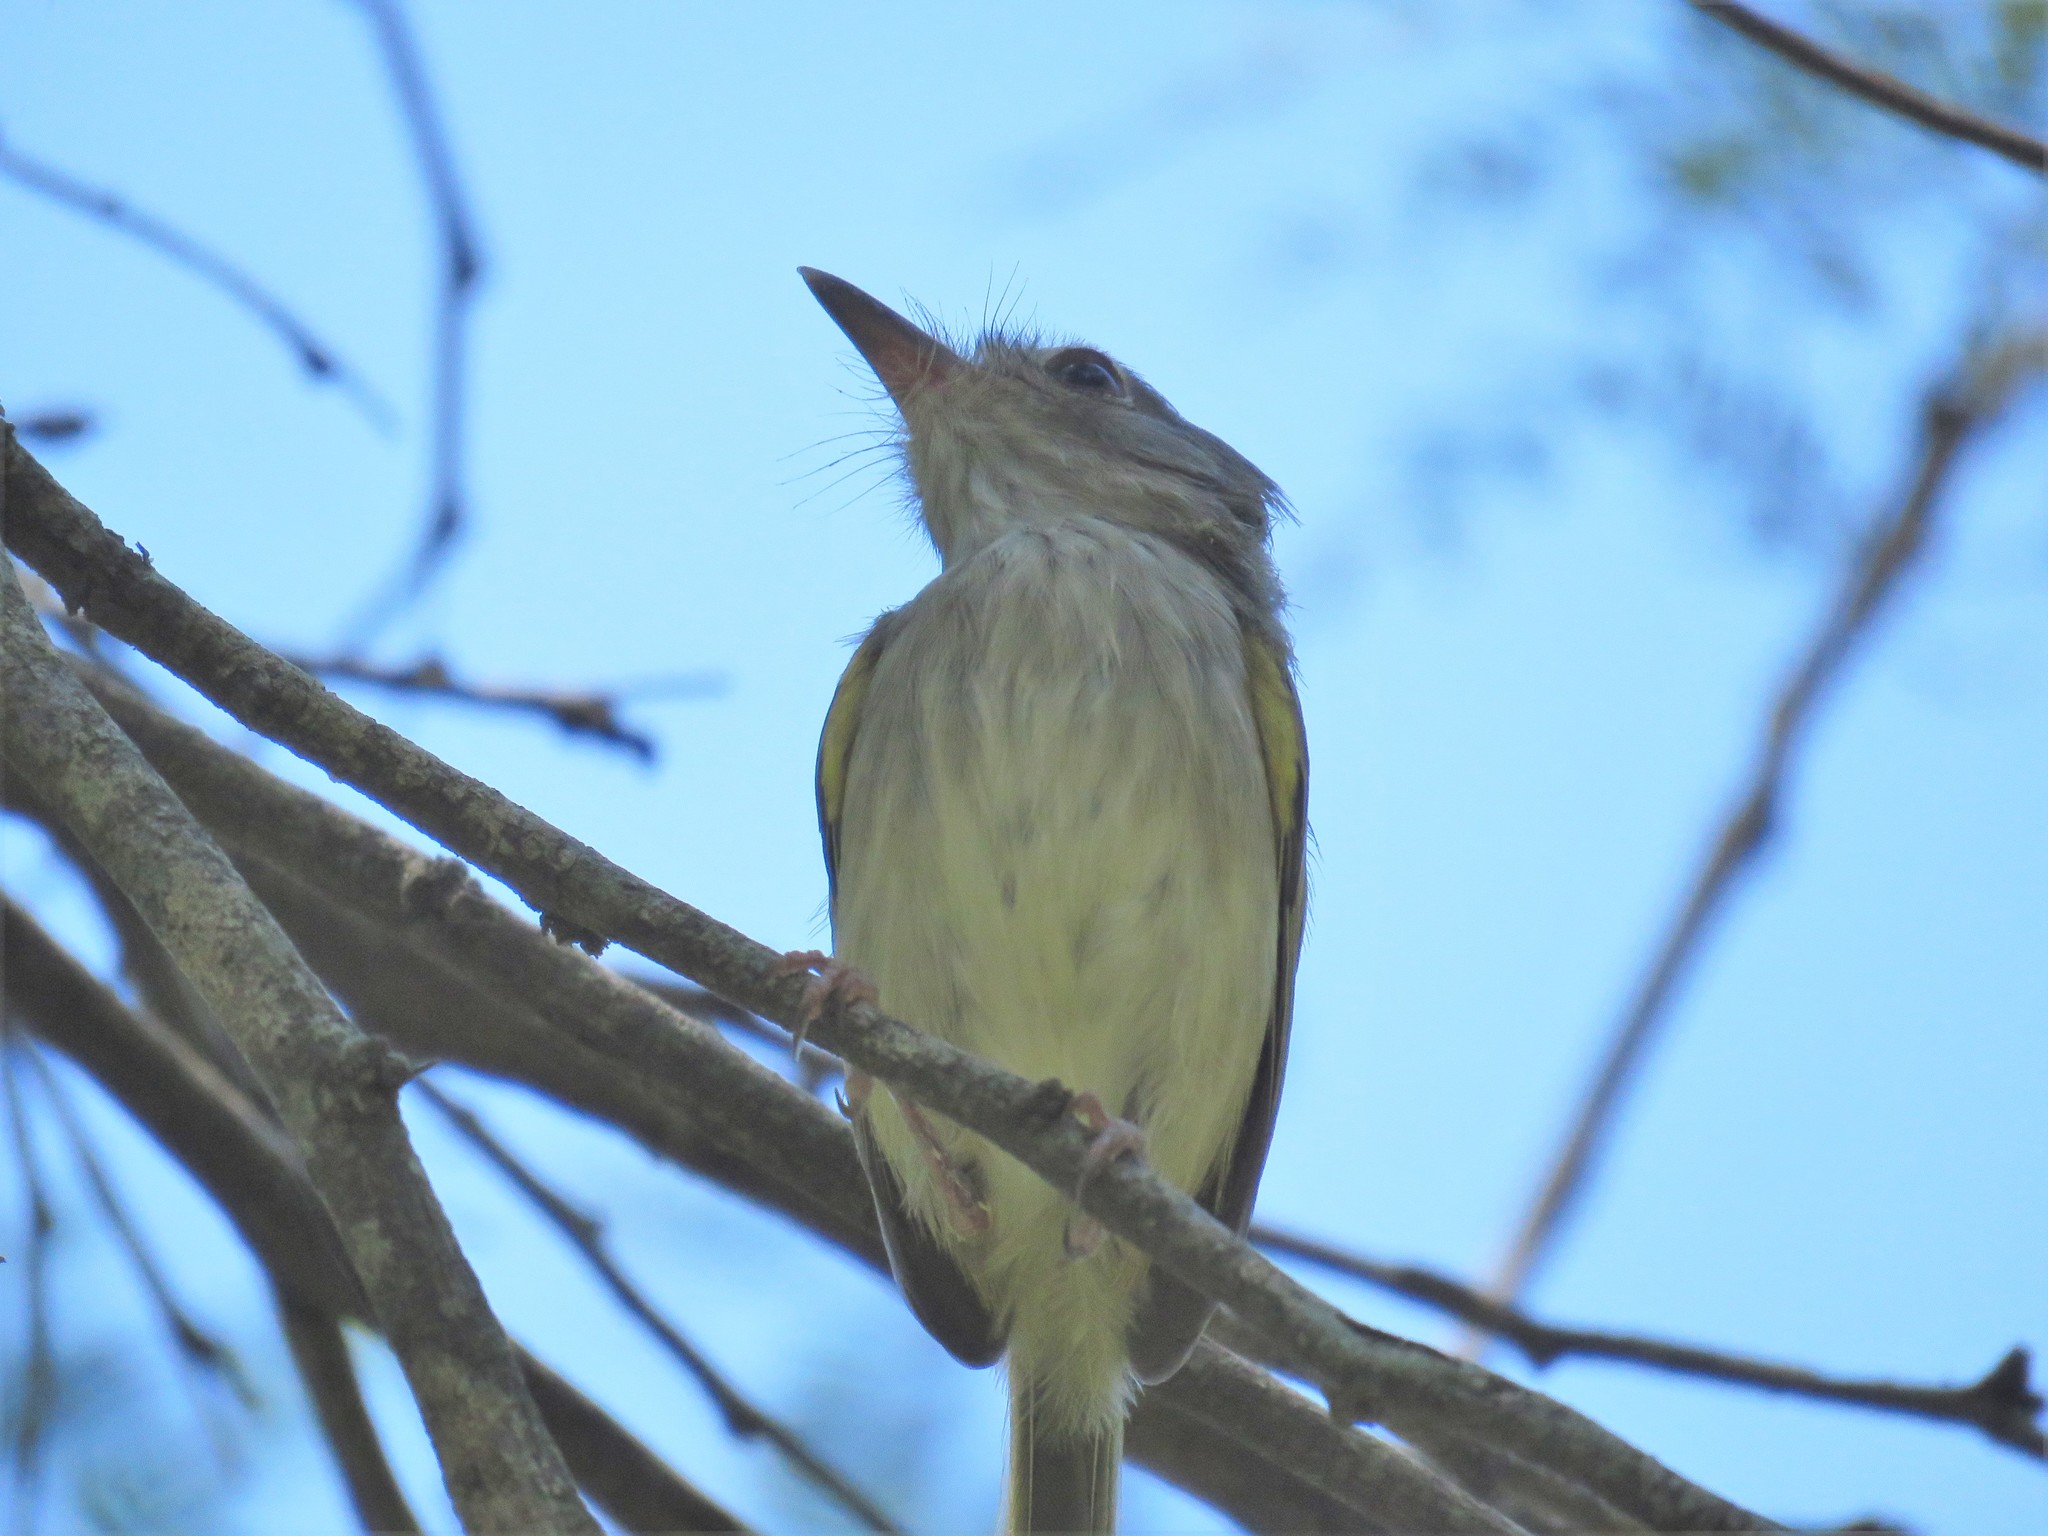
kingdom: Animalia
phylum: Chordata
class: Aves
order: Passeriformes
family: Tyrannidae
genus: Hemitriccus
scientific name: Hemitriccus margaritaceiventer
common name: Pearly-vented tody-tyrant
